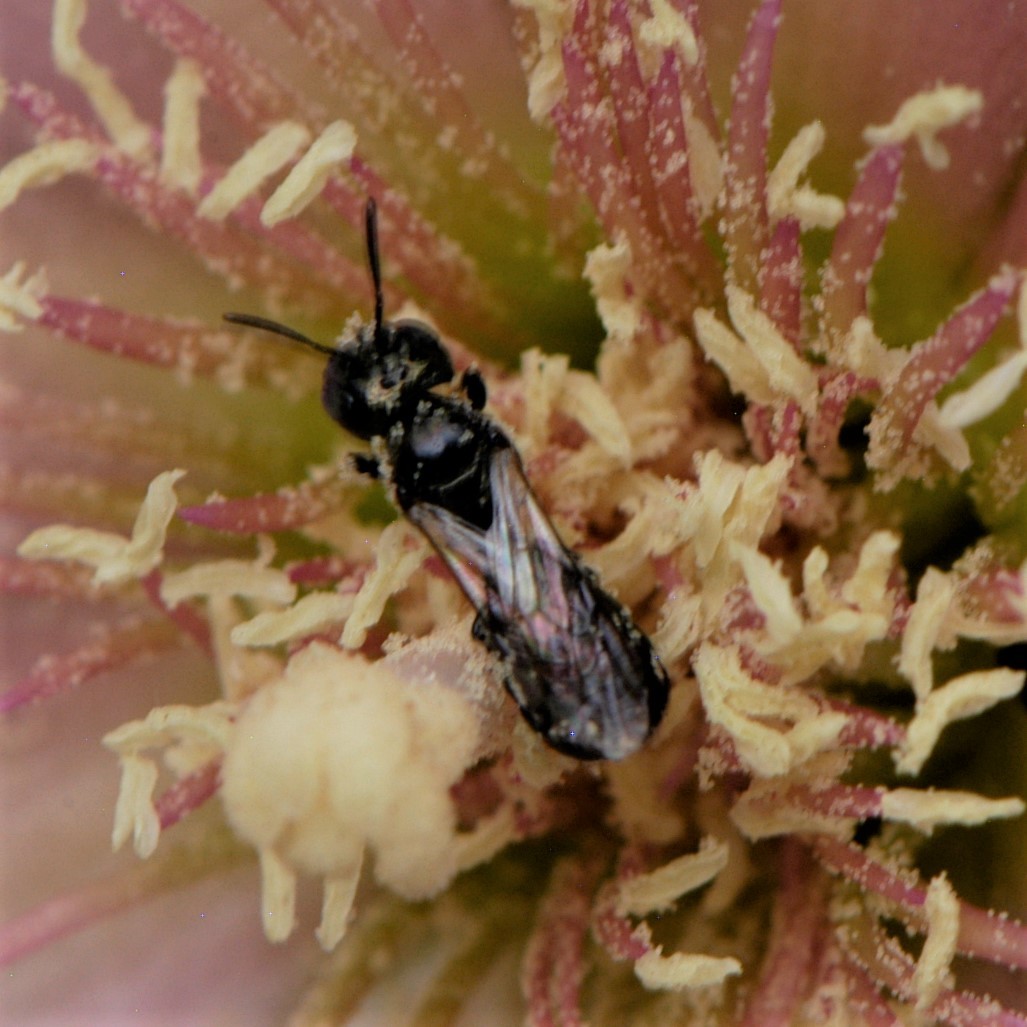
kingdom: Animalia
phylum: Arthropoda
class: Insecta
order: Hymenoptera
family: Apidae
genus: Zadontomerus
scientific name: Zadontomerus
